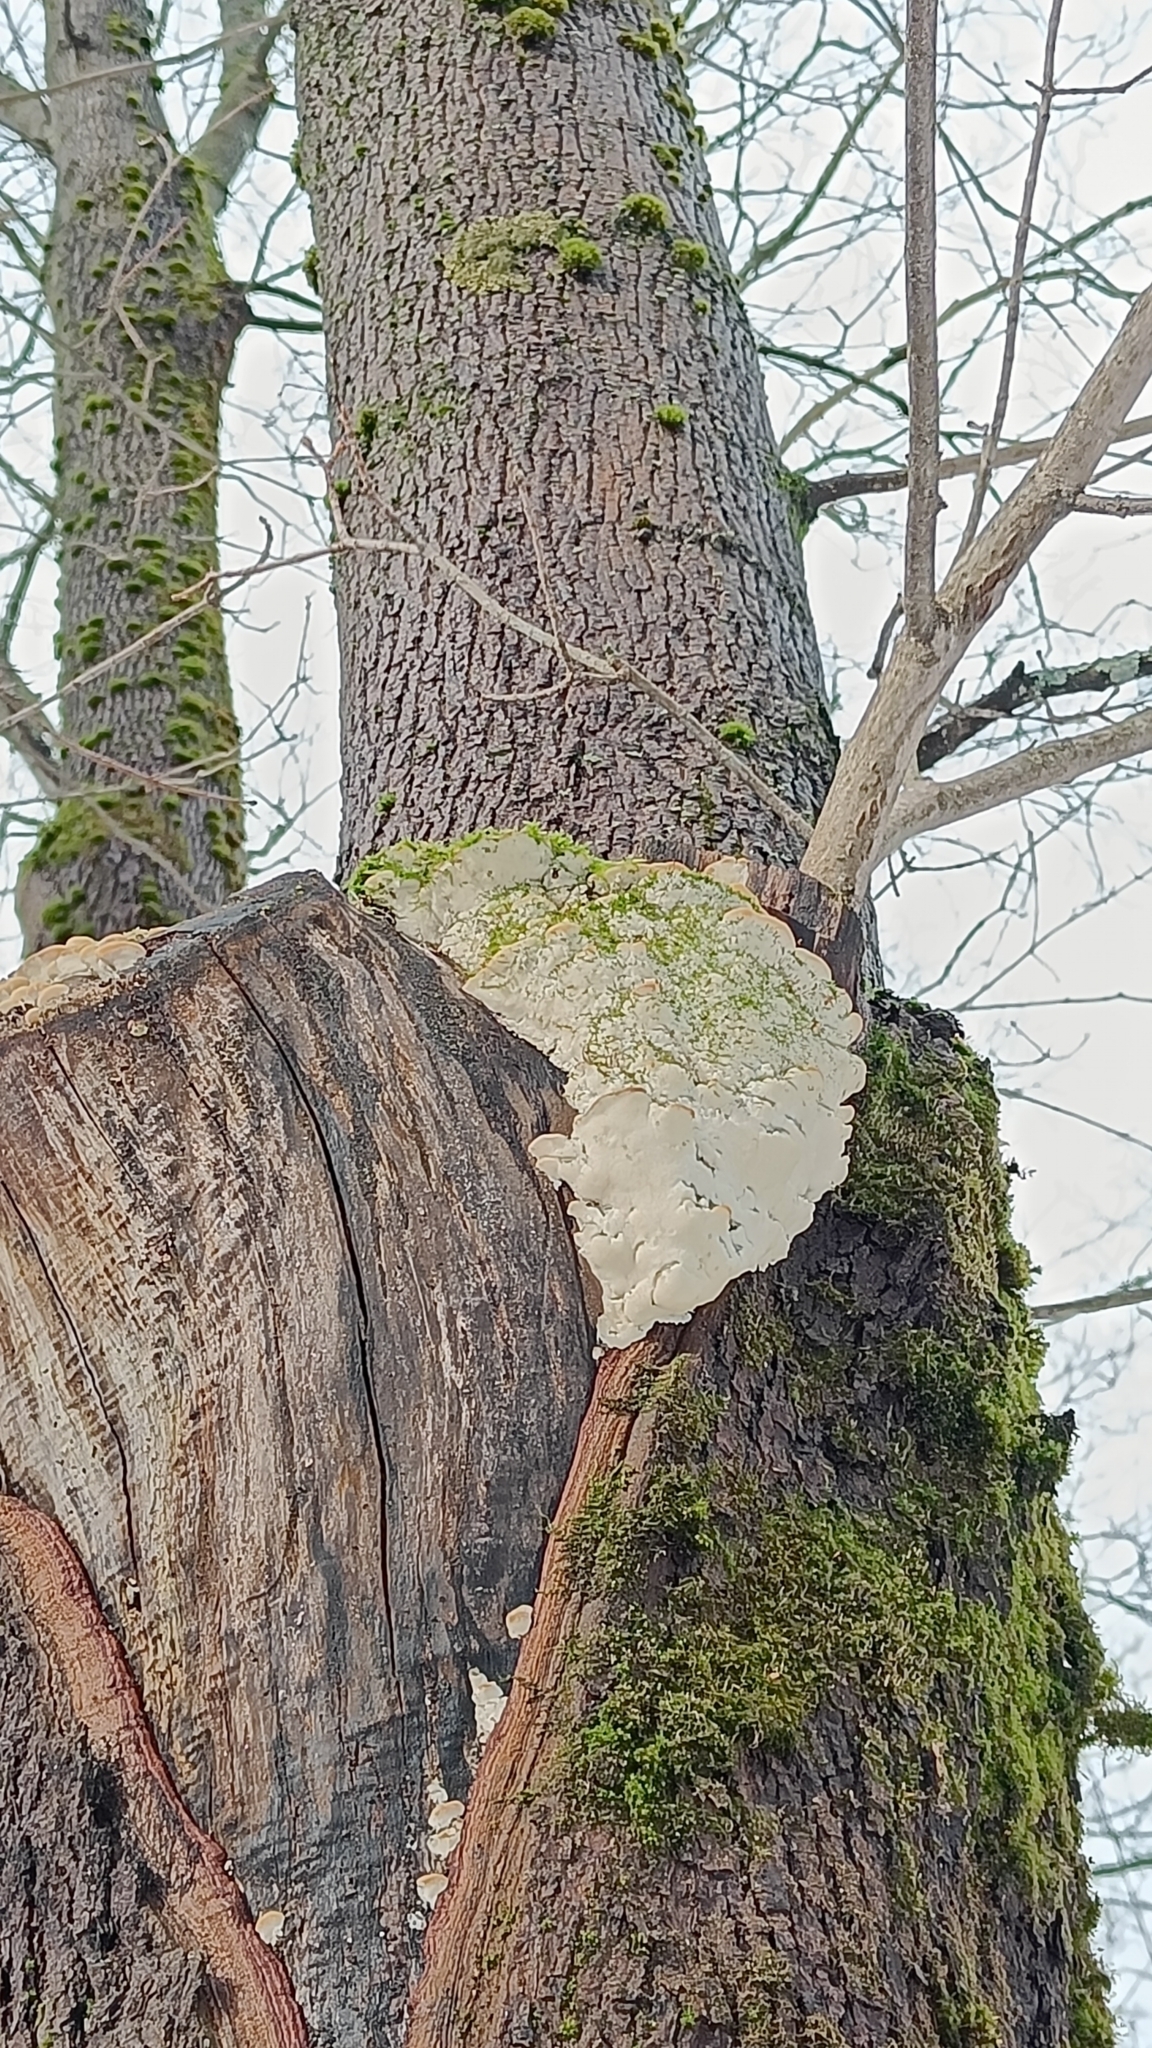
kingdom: Fungi
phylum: Basidiomycota
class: Agaricomycetes
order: Hymenochaetales
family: Oxyporaceae
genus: Oxyporus
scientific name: Oxyporus populinus
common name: Poplar bracket
